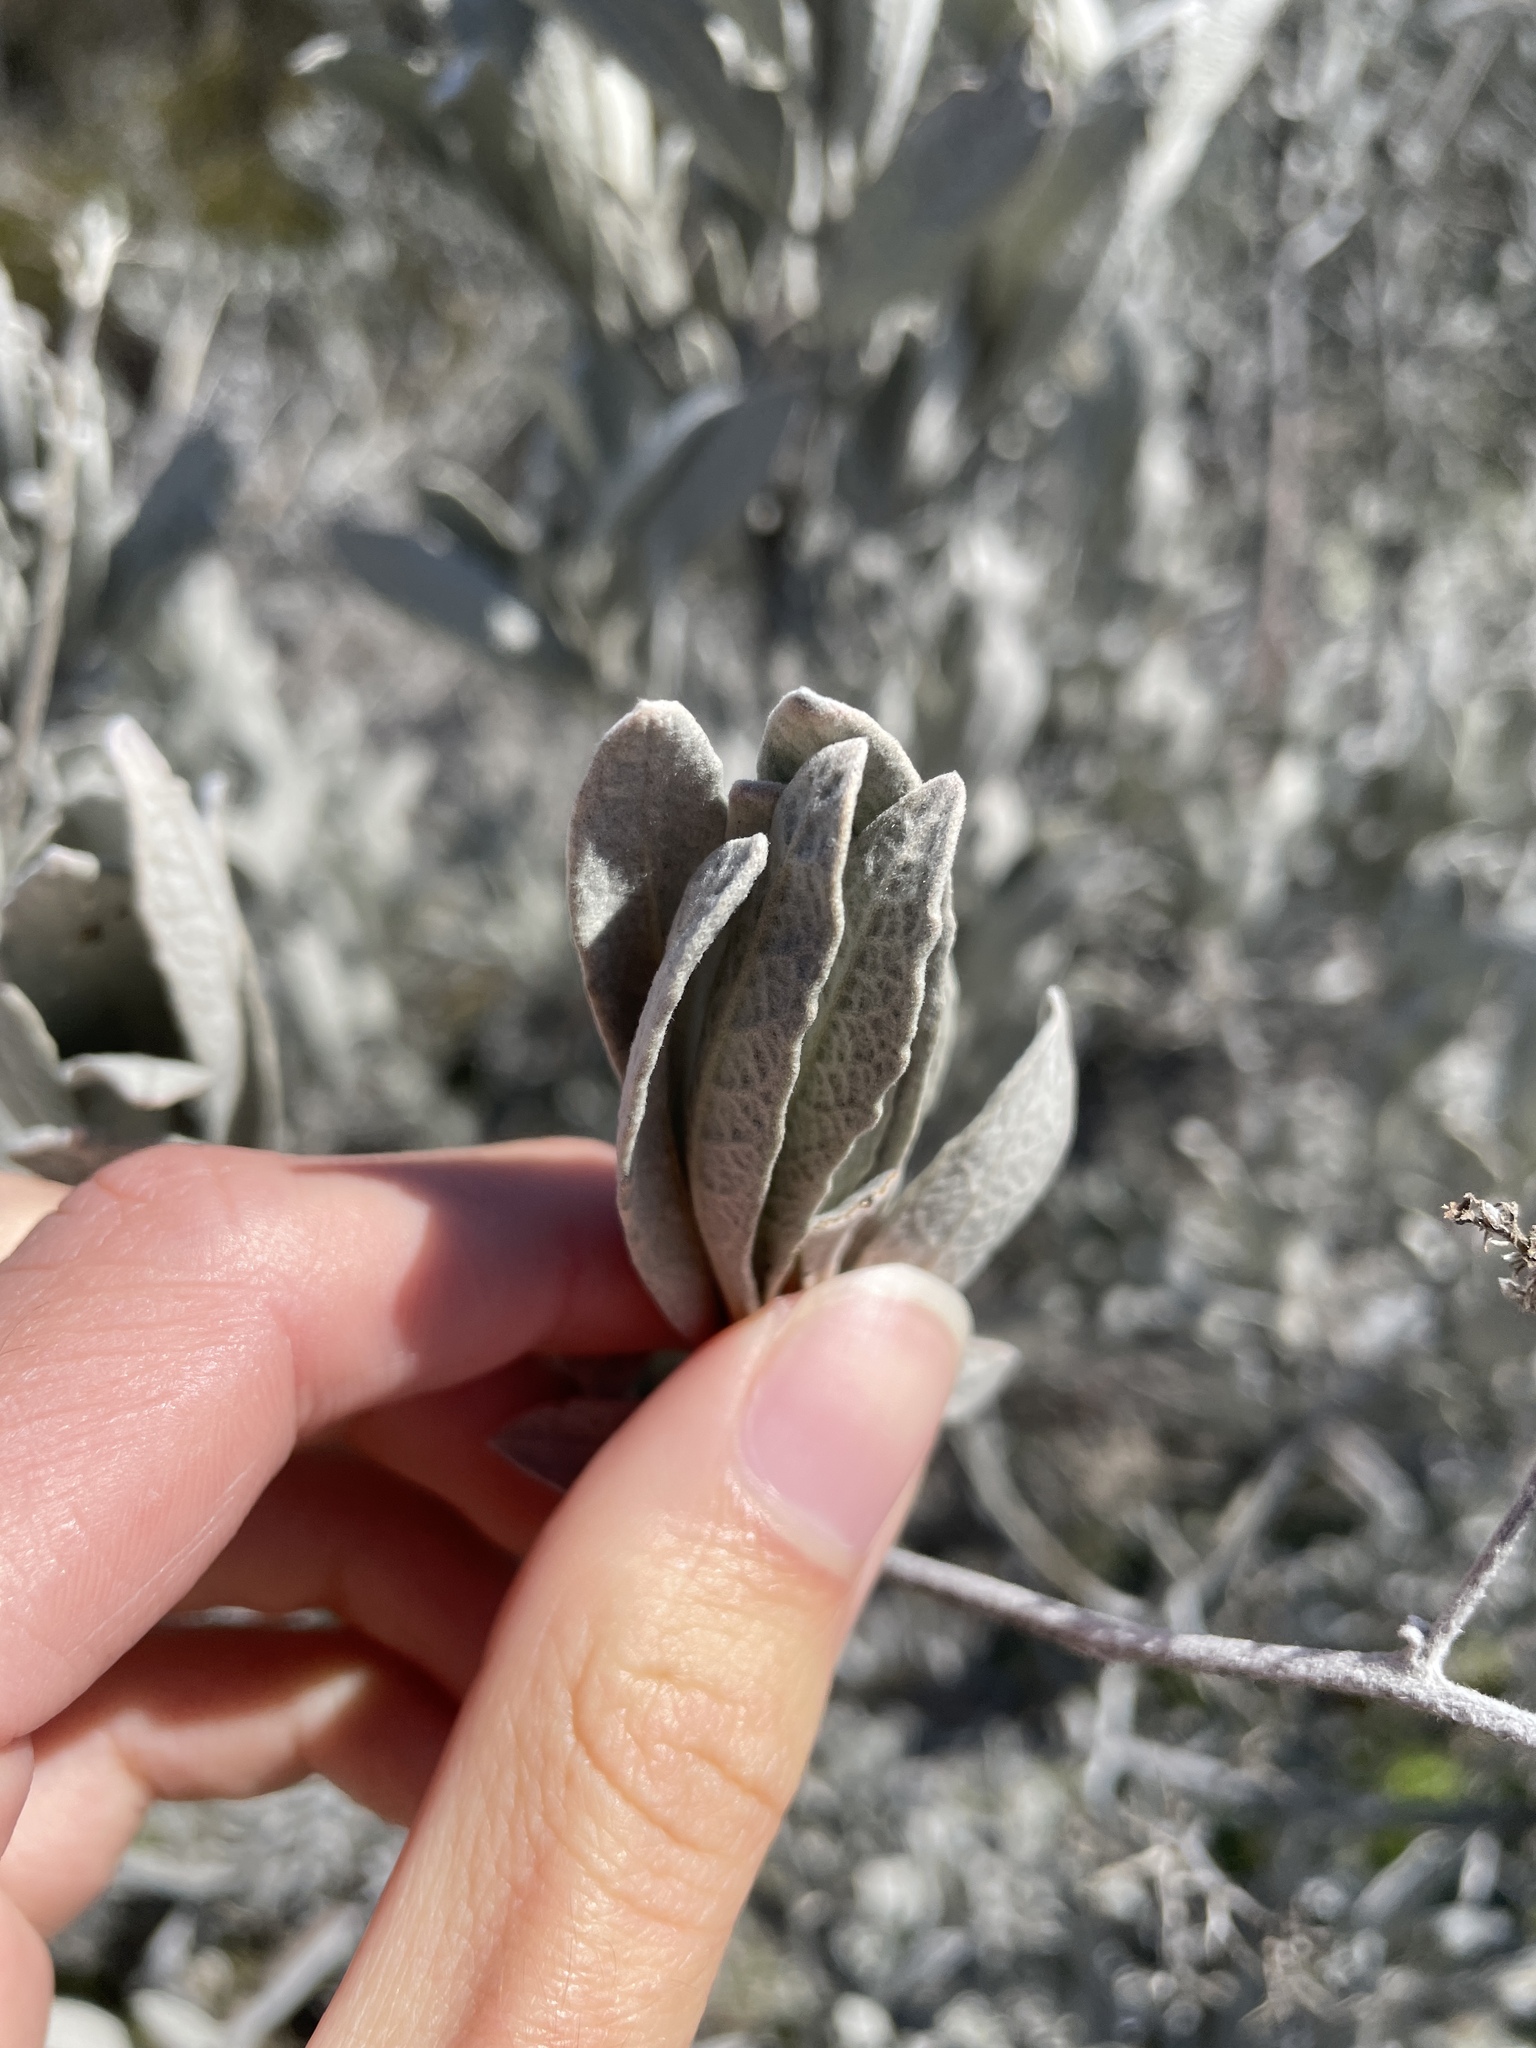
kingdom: Plantae
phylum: Tracheophyta
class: Magnoliopsida
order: Boraginales
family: Namaceae
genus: Eriodictyon
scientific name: Eriodictyon tomentosum
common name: Woolly yerba-santa
